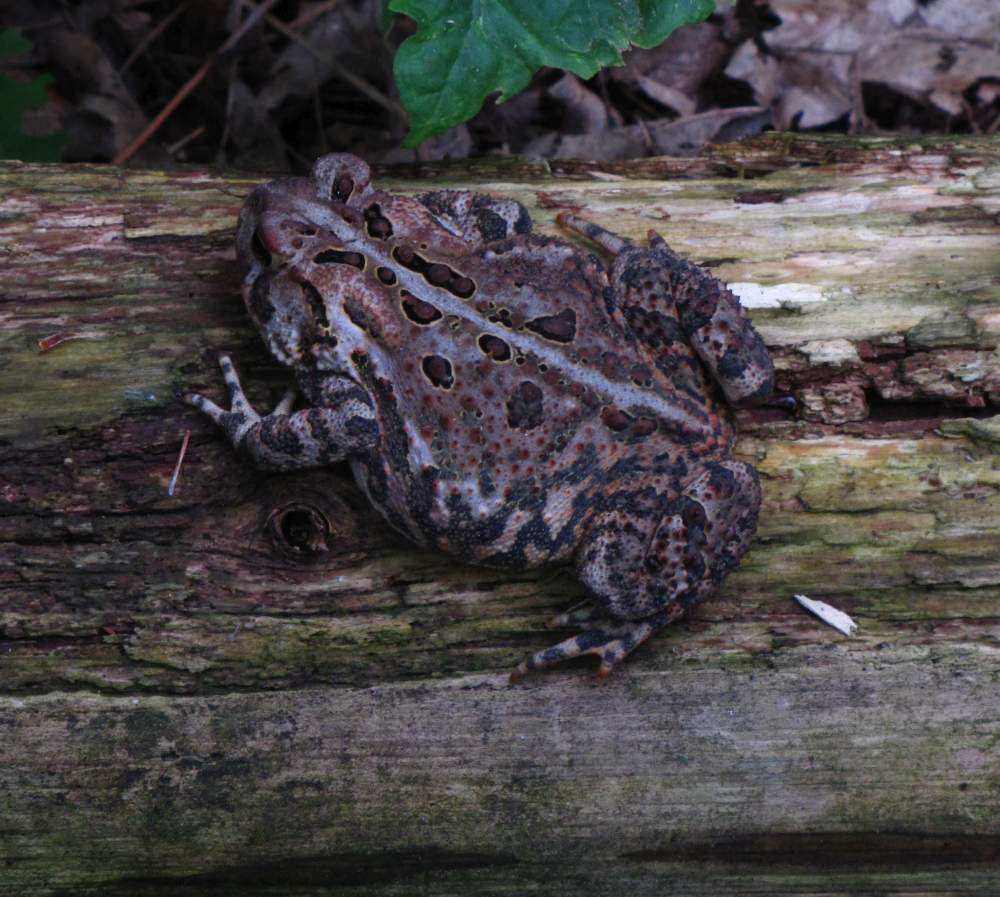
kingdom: Animalia
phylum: Chordata
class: Amphibia
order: Anura
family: Bufonidae
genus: Anaxyrus
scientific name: Anaxyrus americanus
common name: American toad
